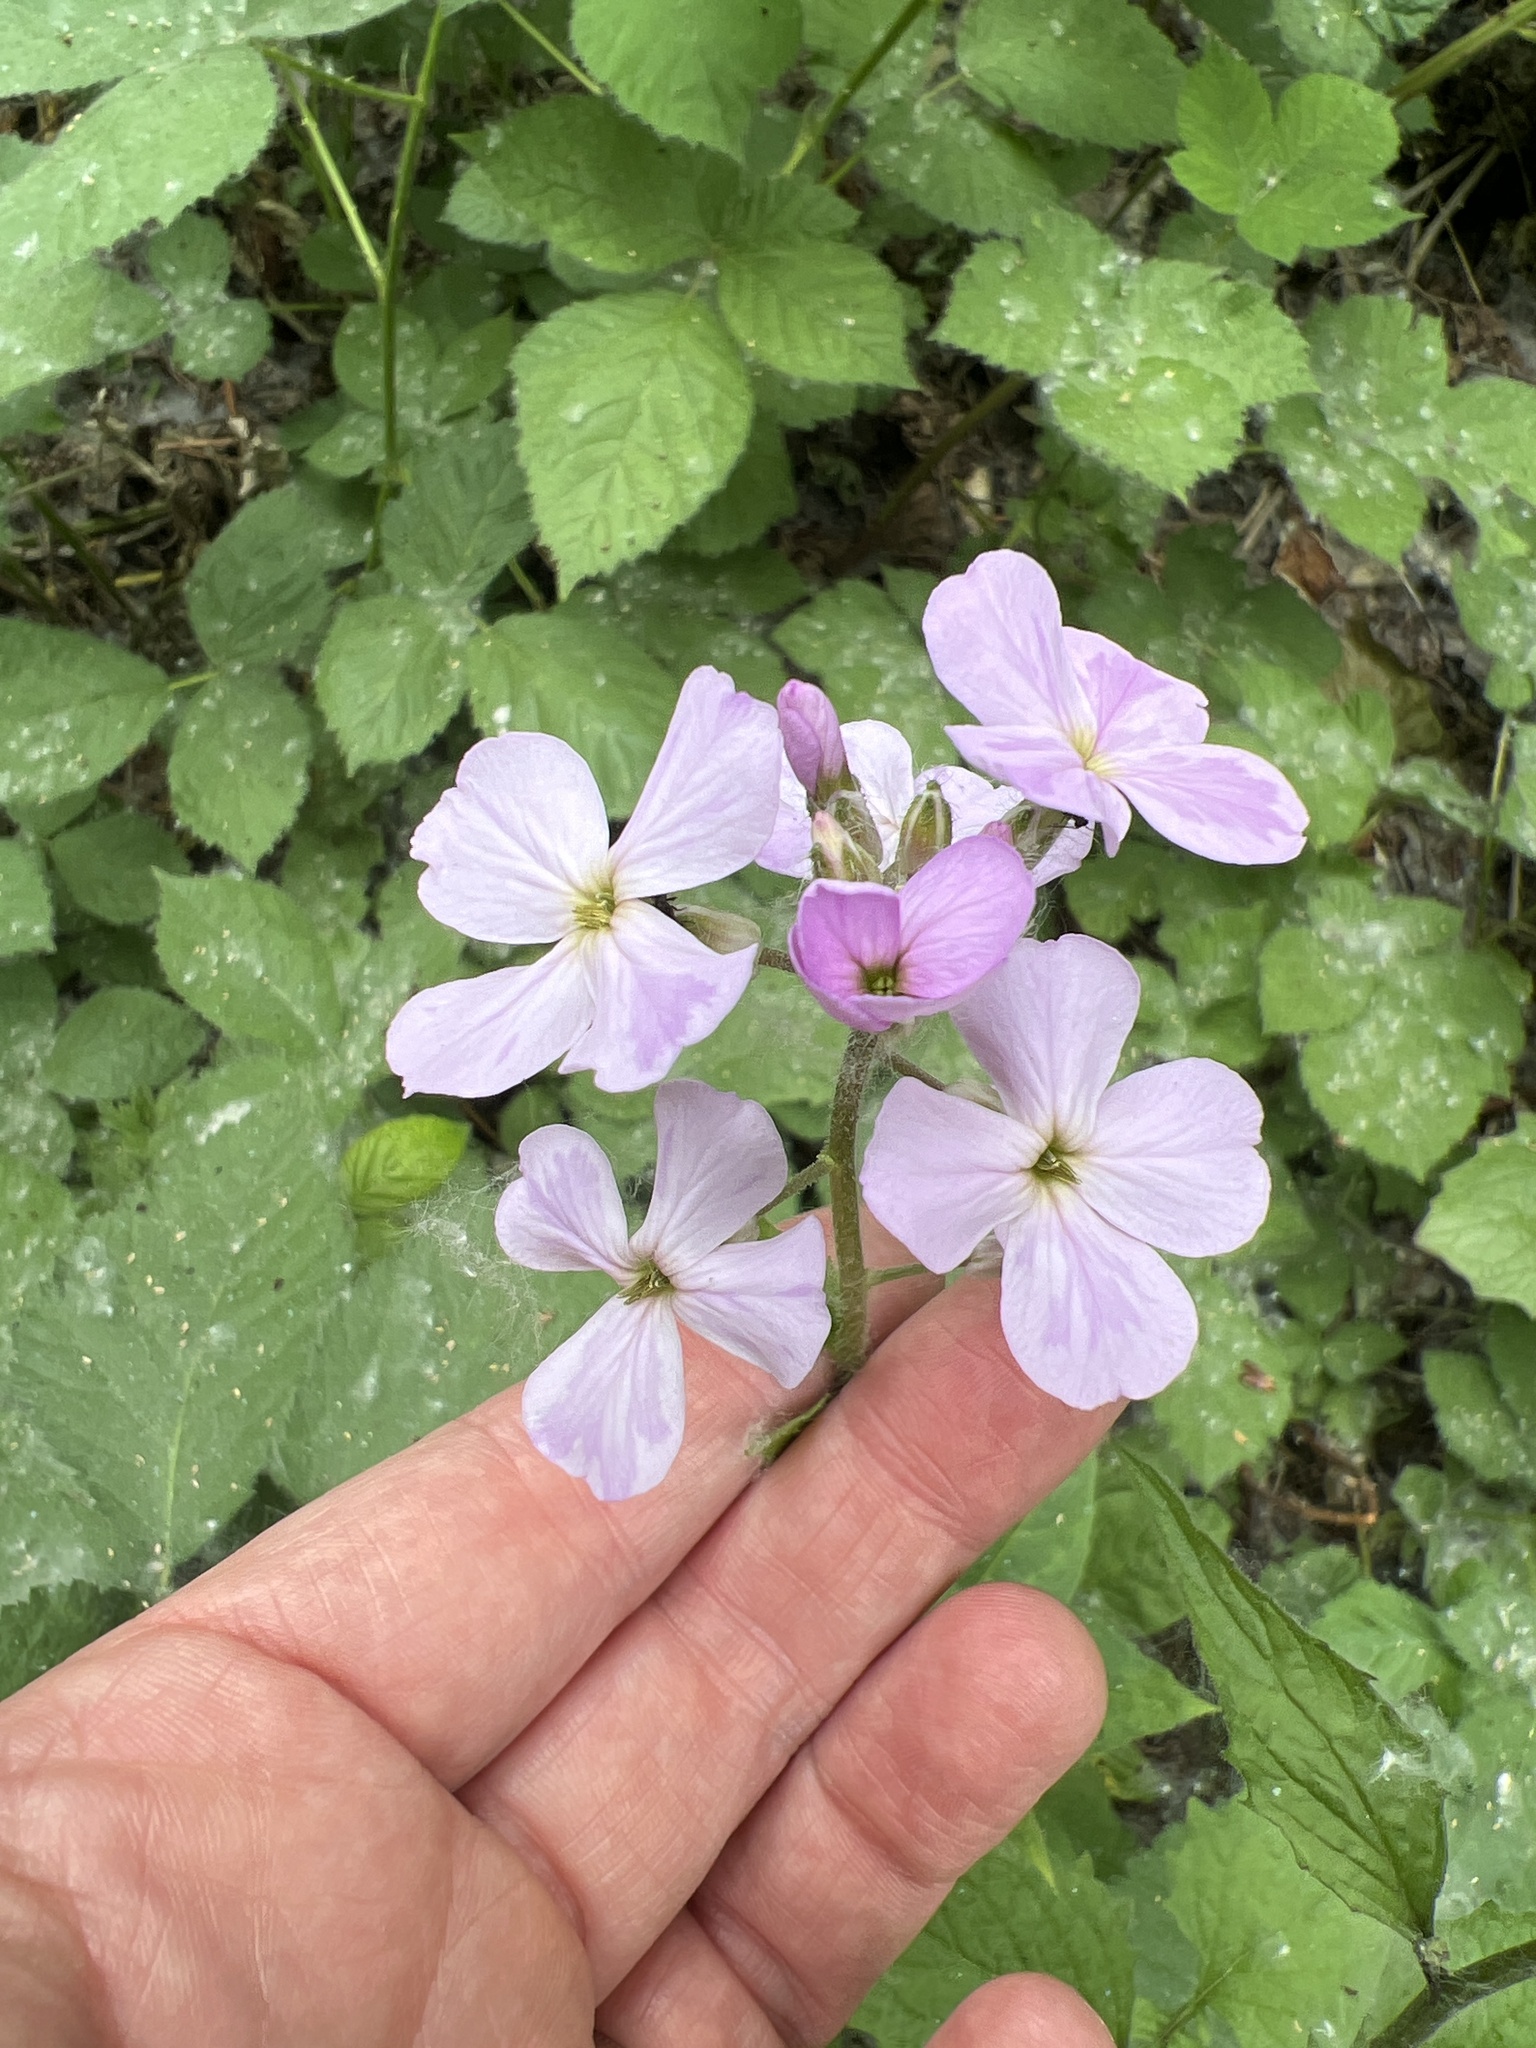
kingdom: Plantae
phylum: Tracheophyta
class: Magnoliopsida
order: Brassicales
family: Brassicaceae
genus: Hesperis
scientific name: Hesperis matronalis
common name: Dame's-violet
